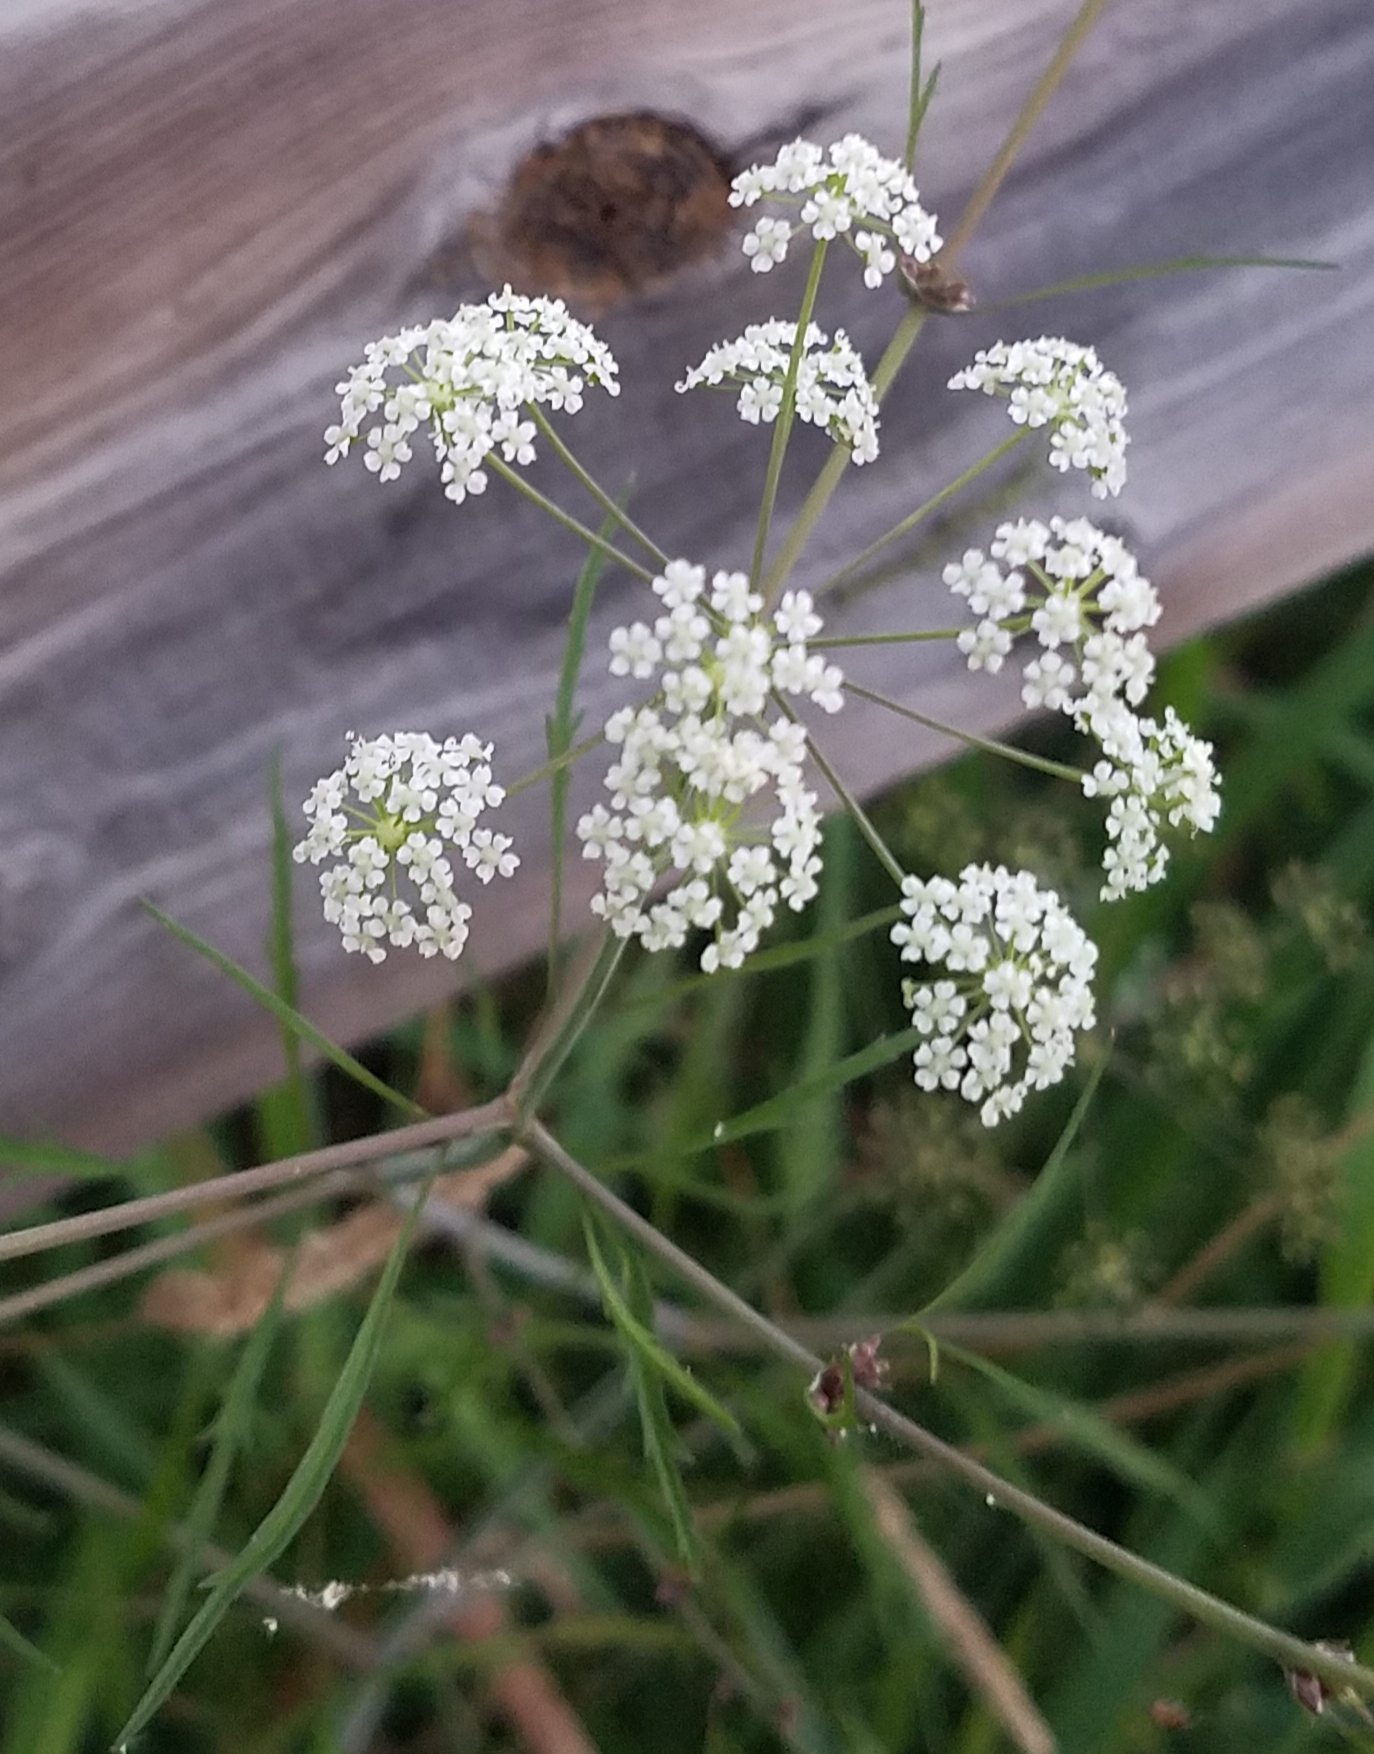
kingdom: Plantae
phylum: Tracheophyta
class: Magnoliopsida
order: Apiales
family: Apiaceae
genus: Cicuta
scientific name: Cicuta bulbifera
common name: Bulb-bearing water-hemlock
